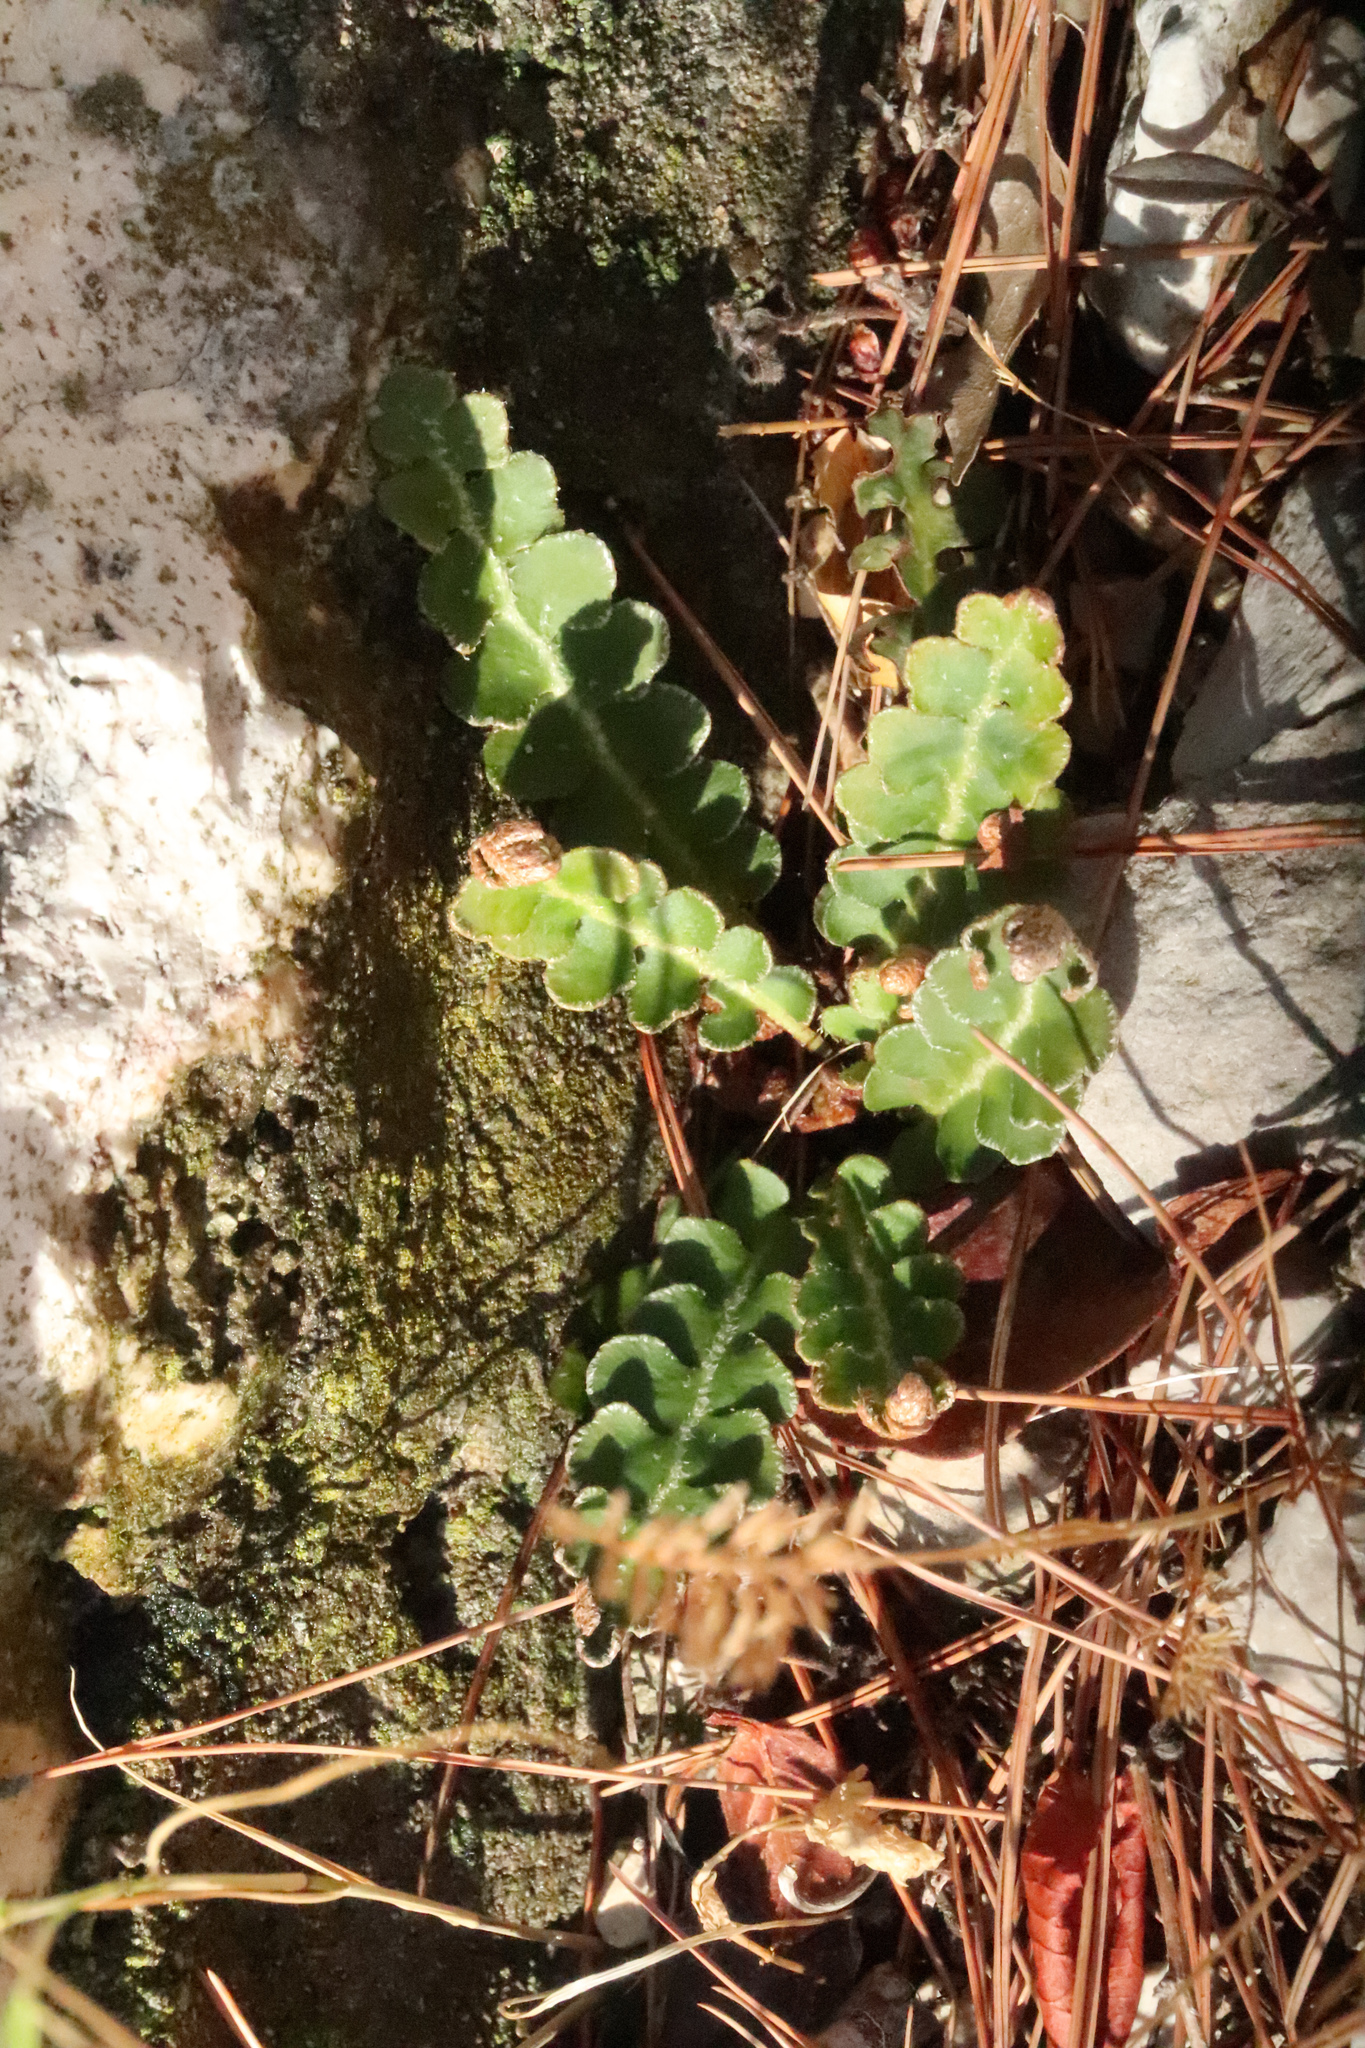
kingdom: Plantae
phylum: Tracheophyta
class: Polypodiopsida
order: Polypodiales
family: Aspleniaceae
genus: Asplenium
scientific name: Asplenium ceterach
